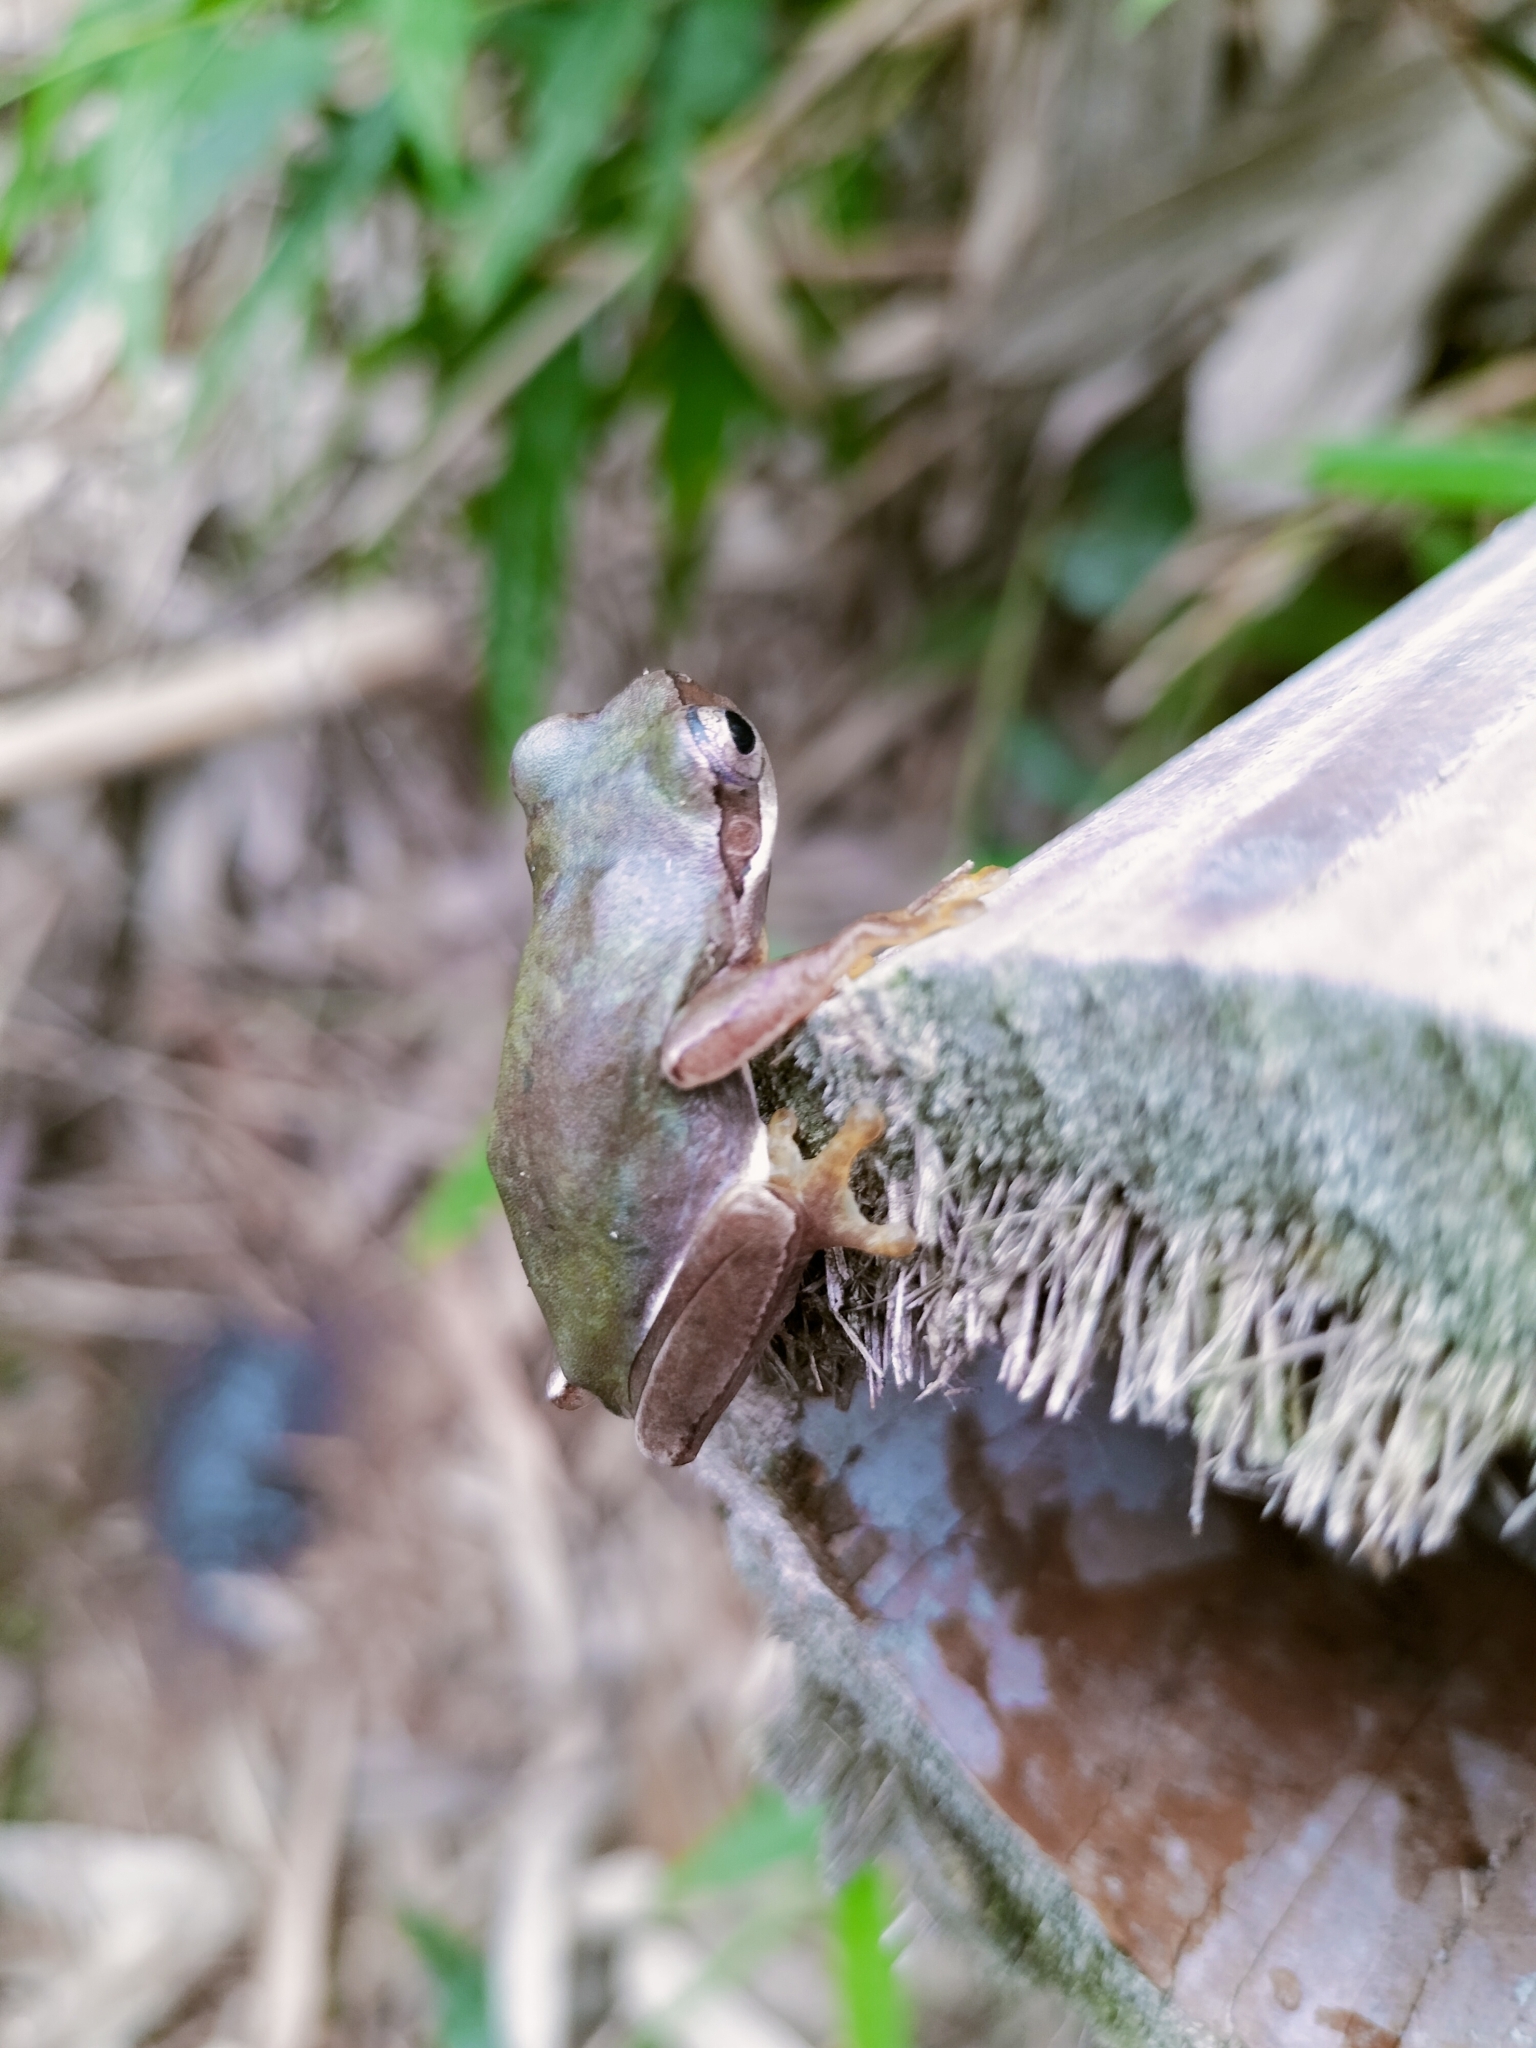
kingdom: Animalia
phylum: Chordata
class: Amphibia
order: Anura
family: Hylidae
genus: Hyla
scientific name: Hyla chinensis
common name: Common chinese treefrog
